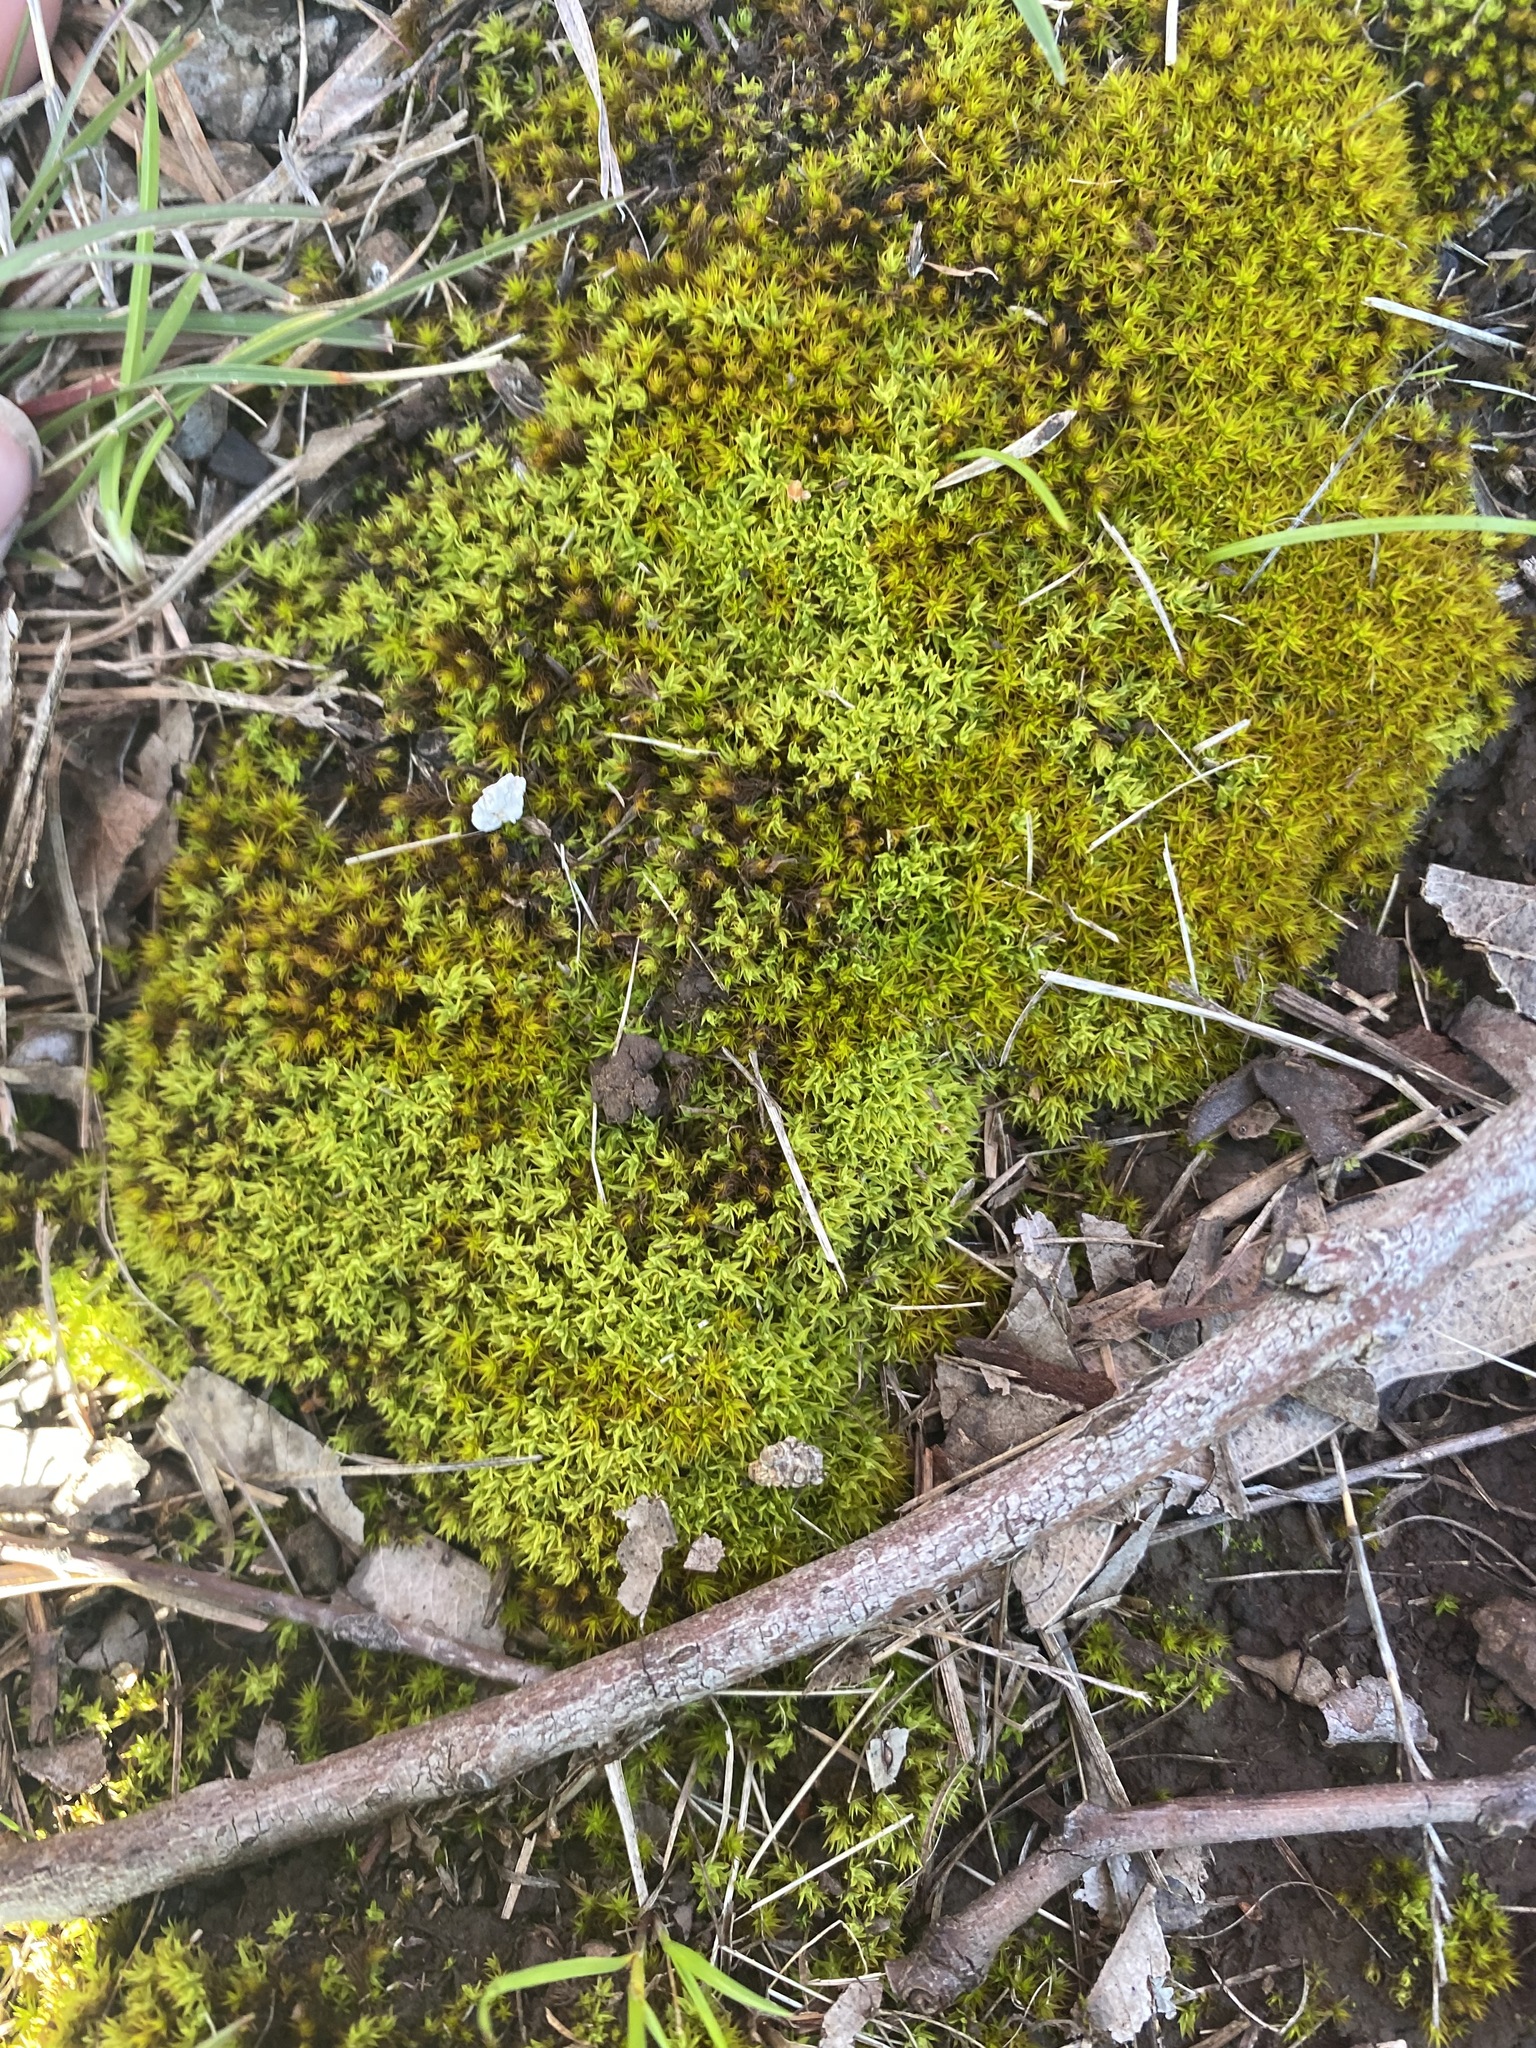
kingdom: Plantae
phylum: Bryophyta
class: Bryopsida
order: Pottiales
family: Pottiaceae
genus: Gertrudiella
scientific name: Gertrudiella torquata
